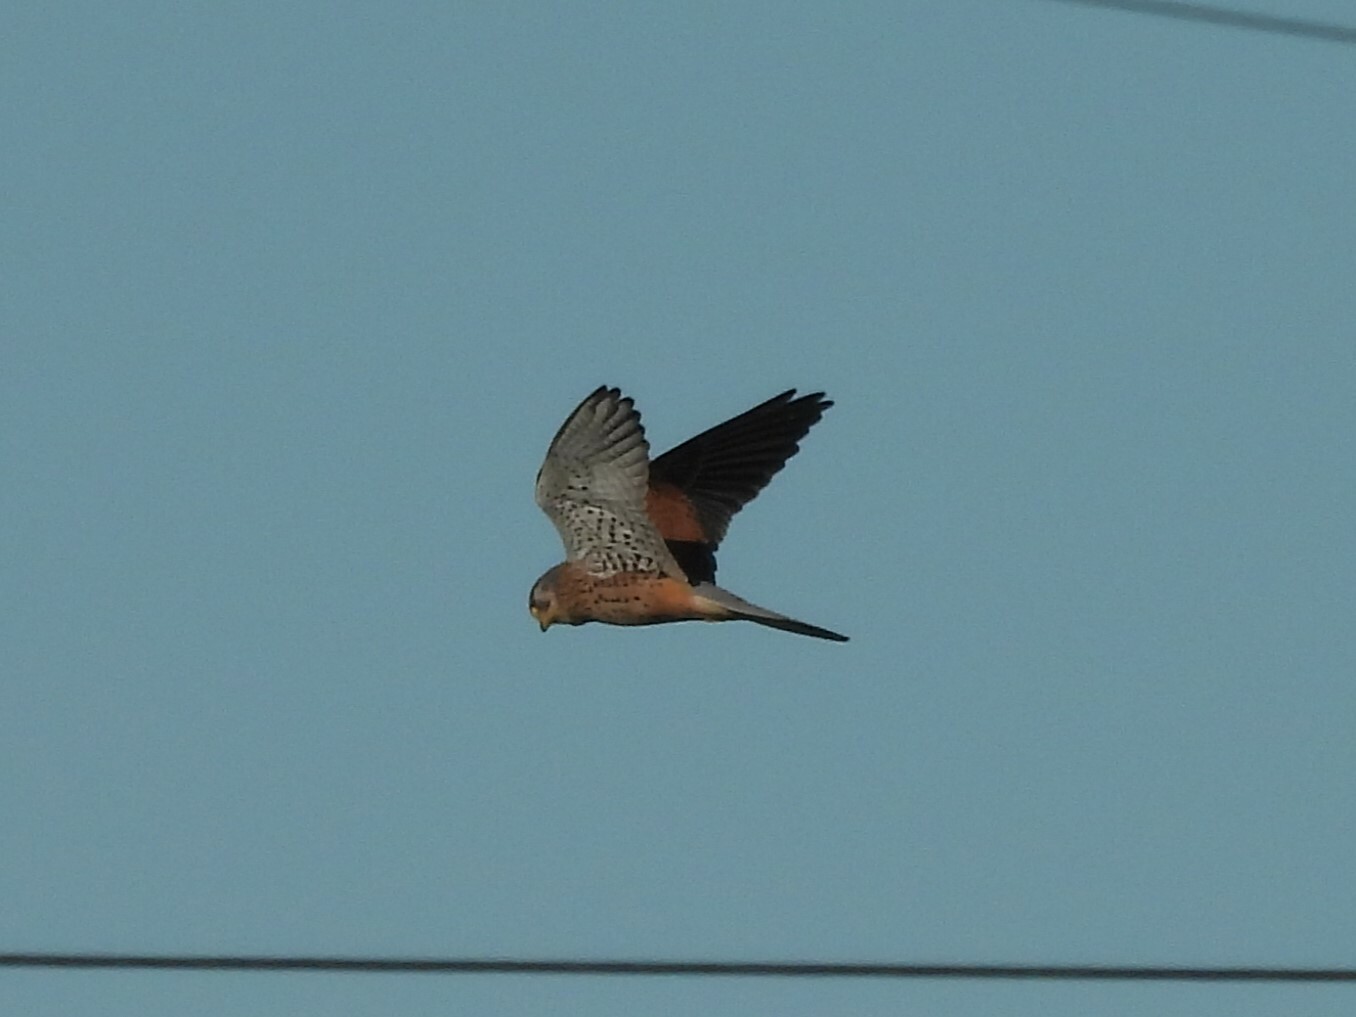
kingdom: Animalia
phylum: Chordata
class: Aves
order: Falconiformes
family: Falconidae
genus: Falco
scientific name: Falco tinnunculus
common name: Common kestrel
